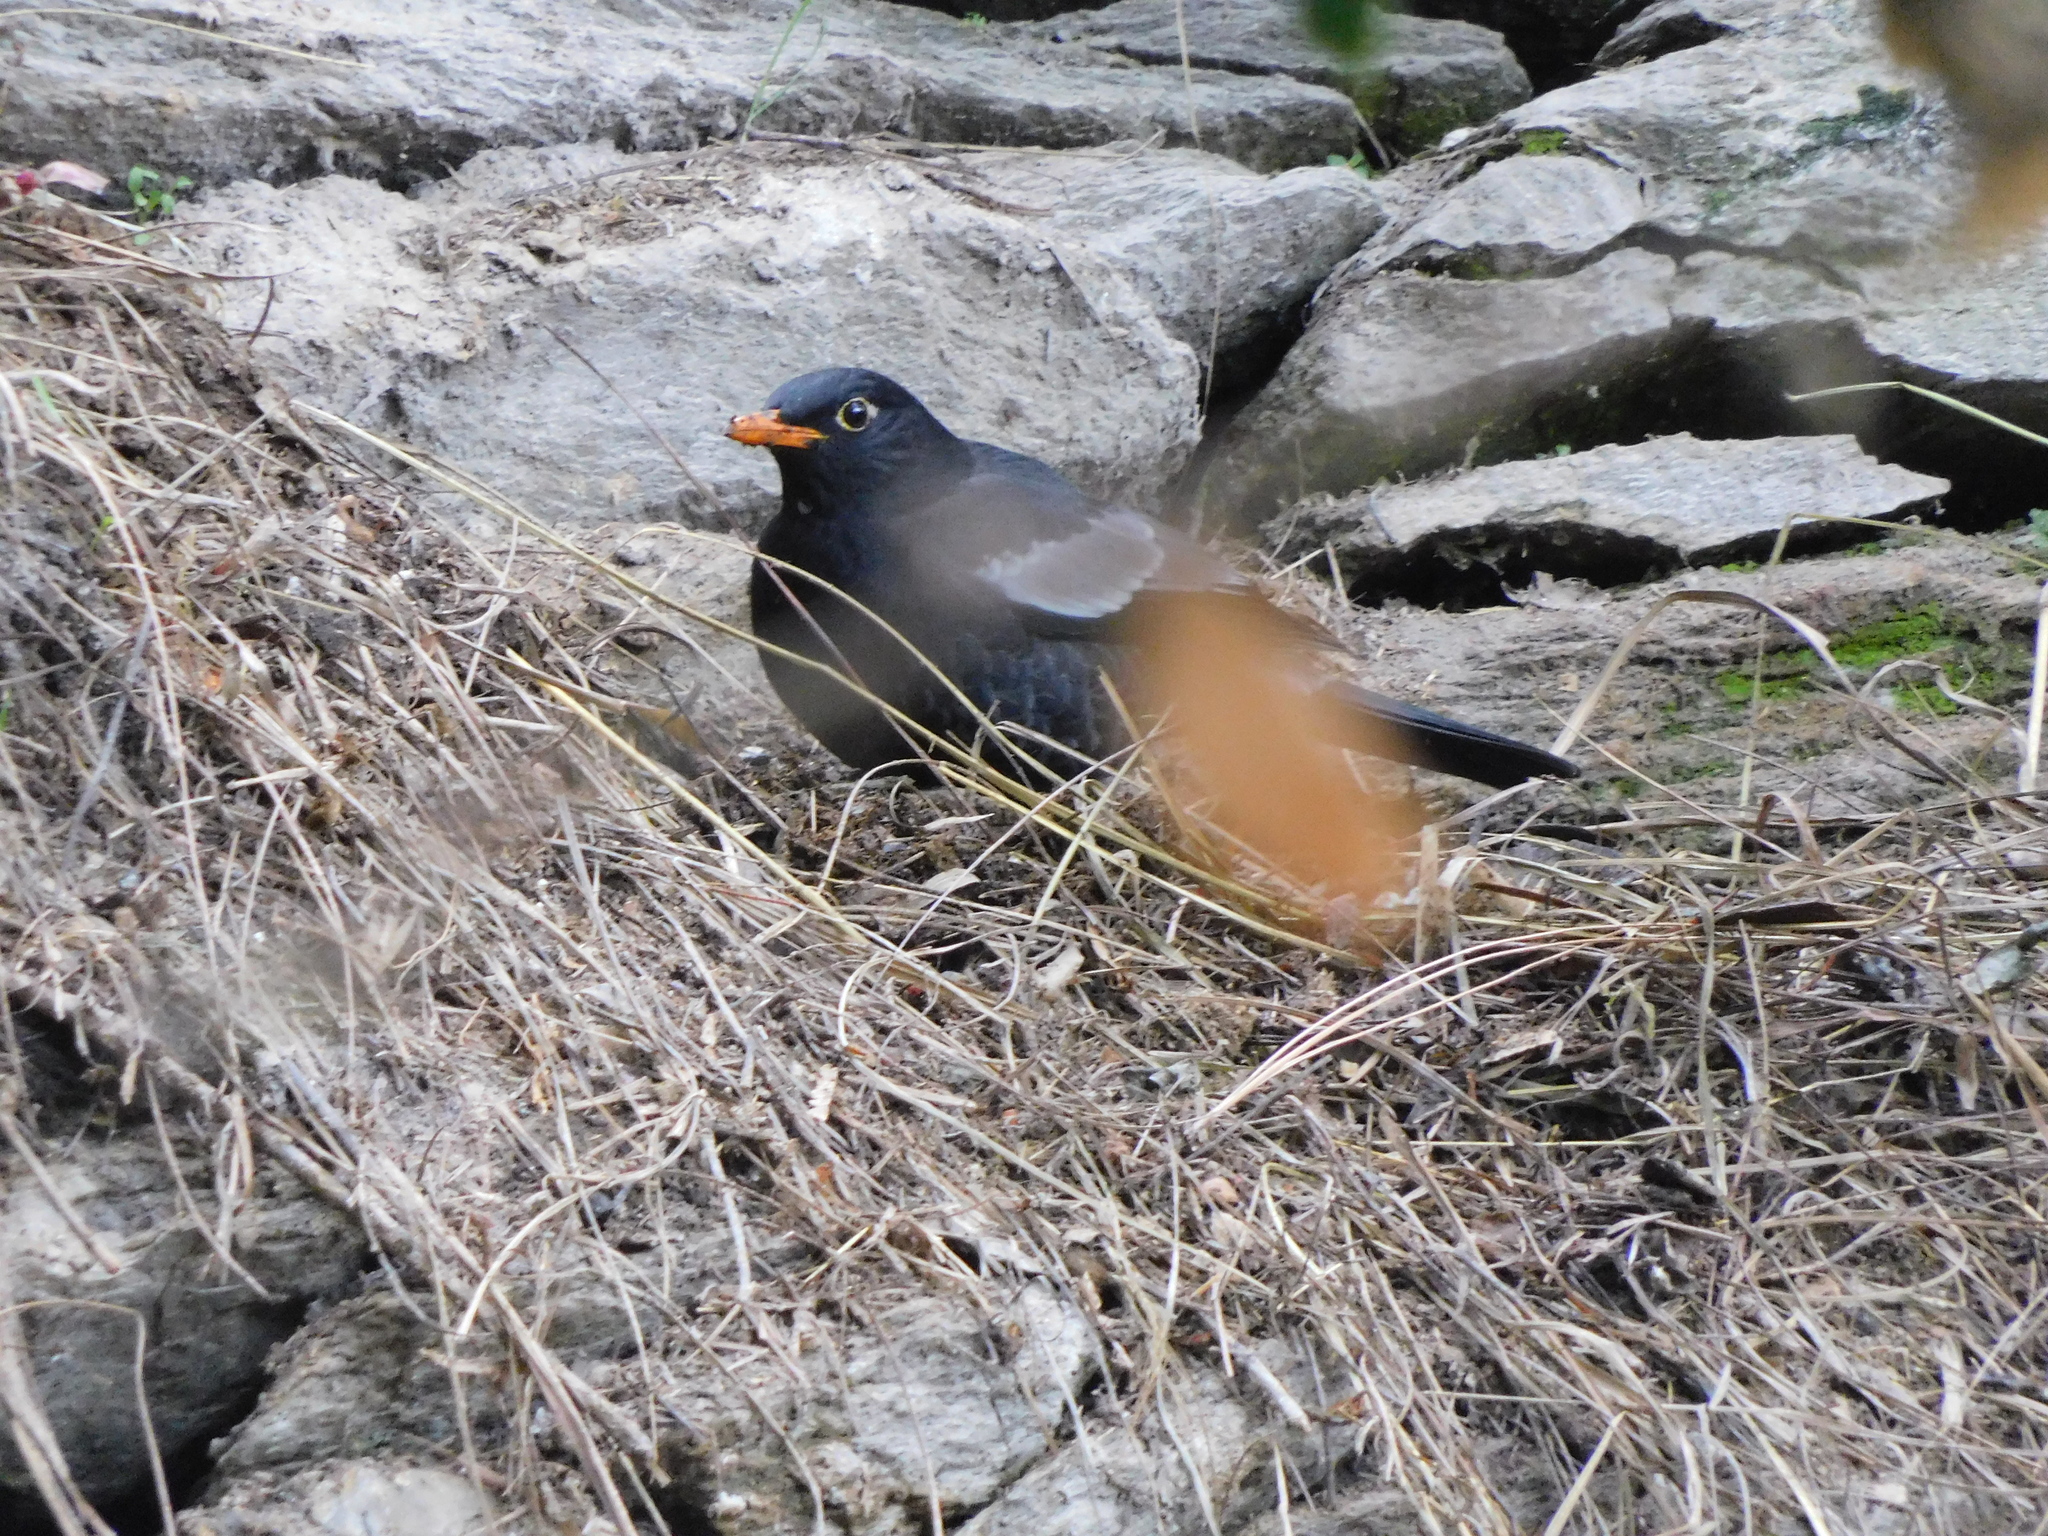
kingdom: Animalia
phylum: Chordata
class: Aves
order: Passeriformes
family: Turdidae
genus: Turdus
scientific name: Turdus boulboul
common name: Grey-winged blackbird
